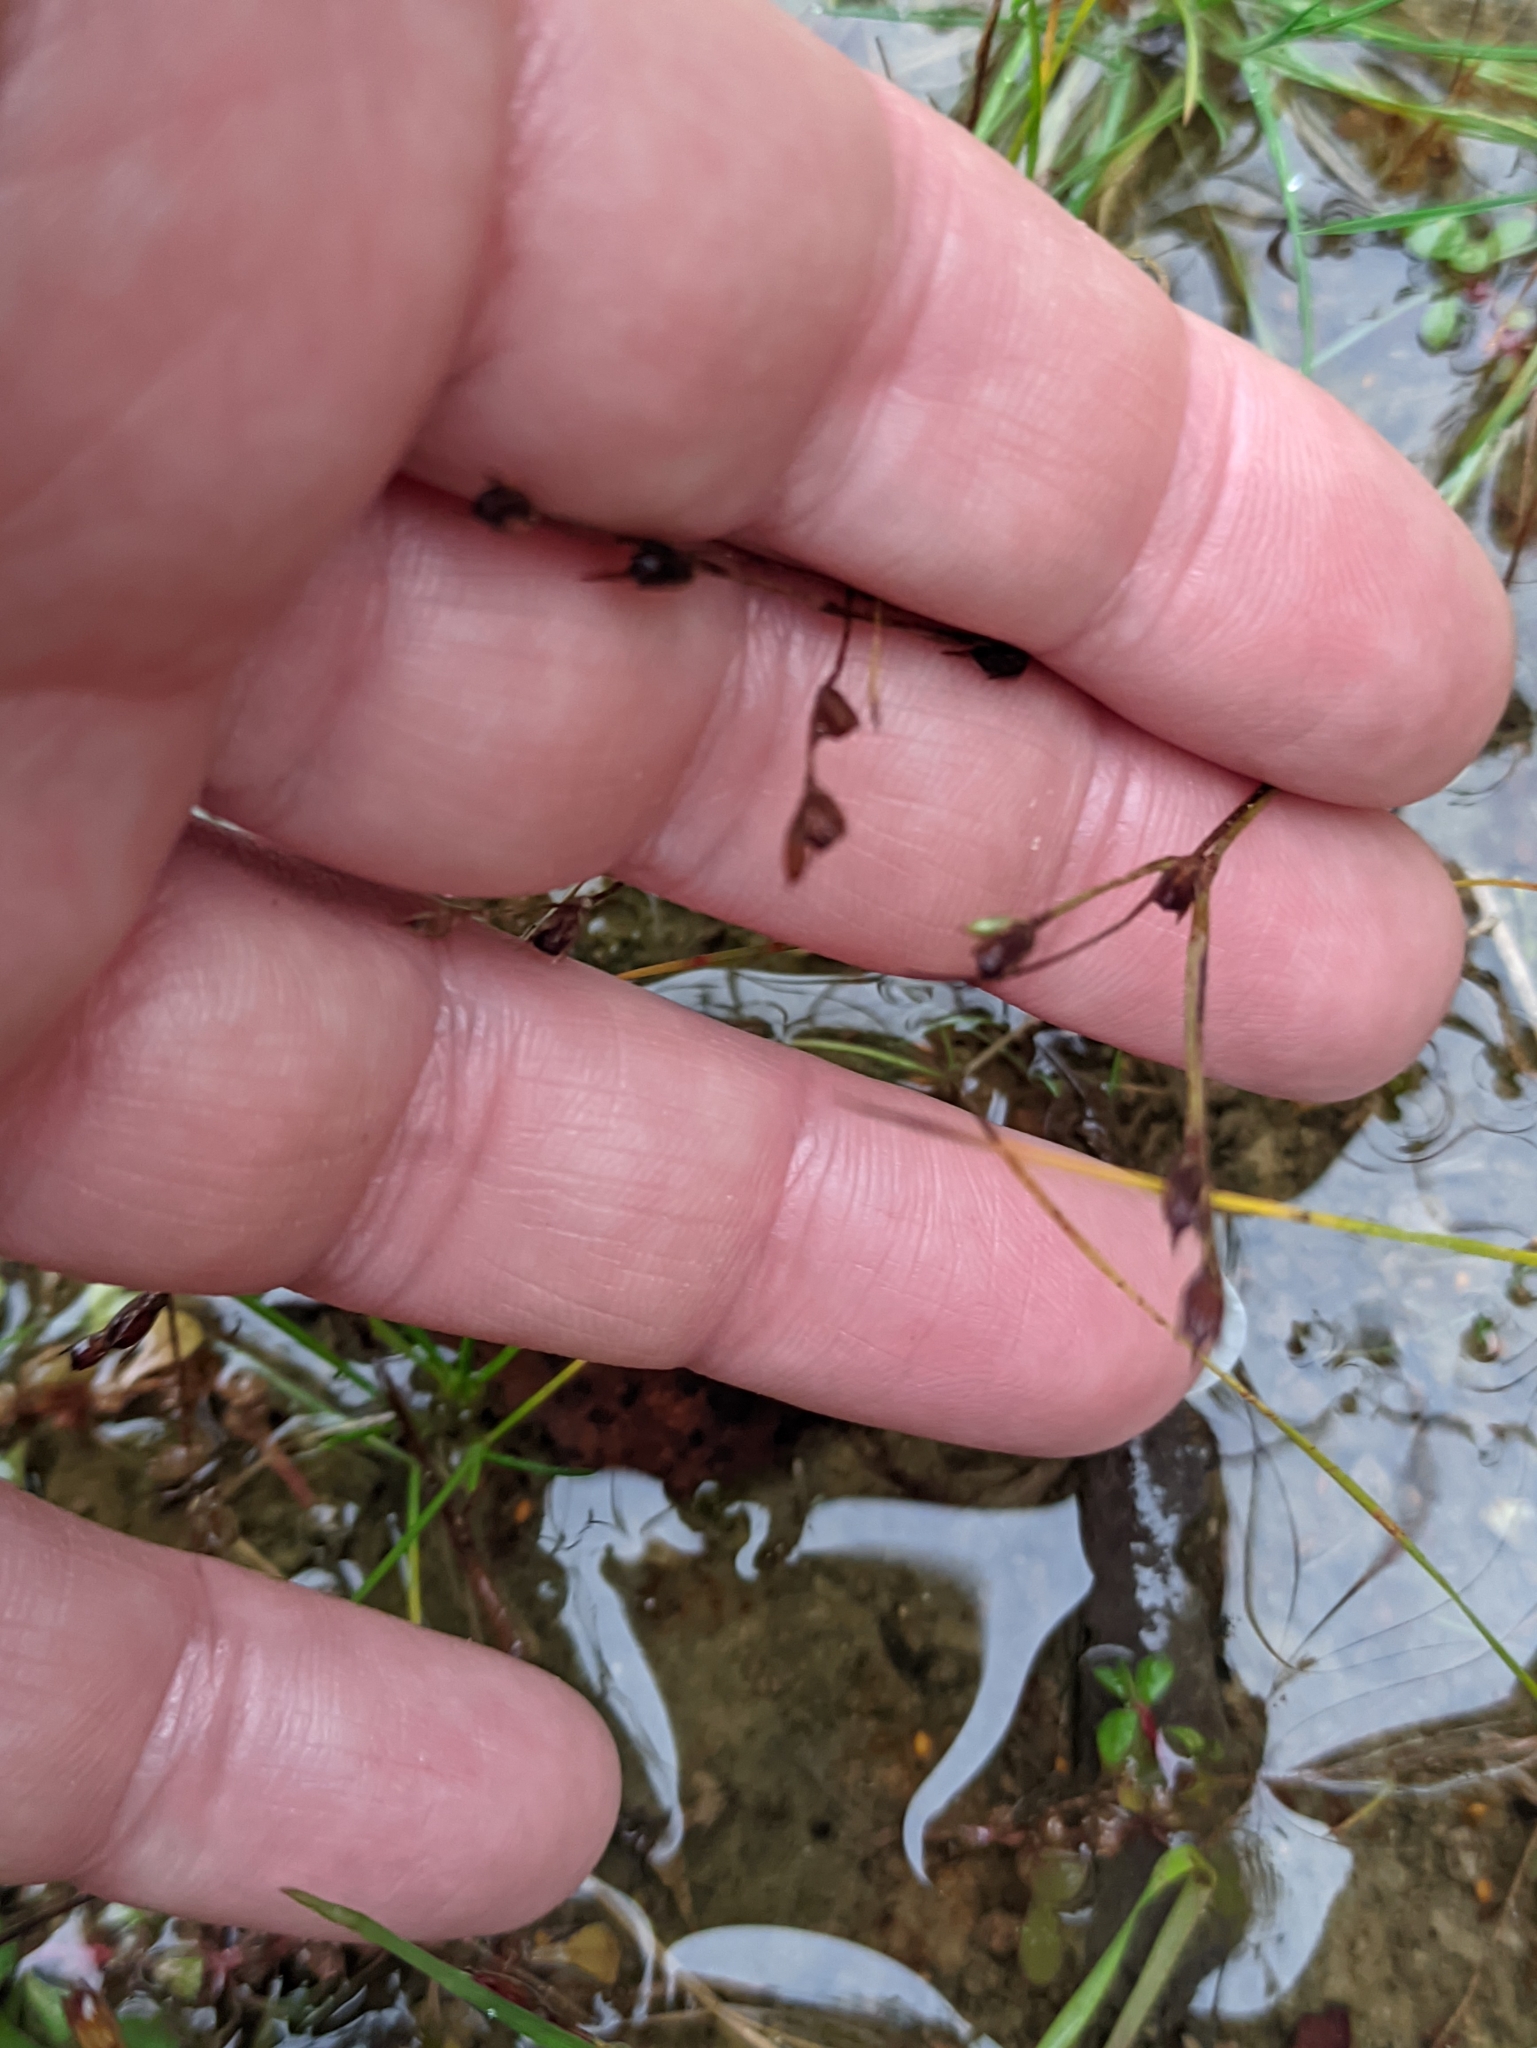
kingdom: Plantae
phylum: Tracheophyta
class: Liliopsida
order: Poales
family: Juncaceae
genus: Juncus
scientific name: Juncus bufonius
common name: Toad rush
